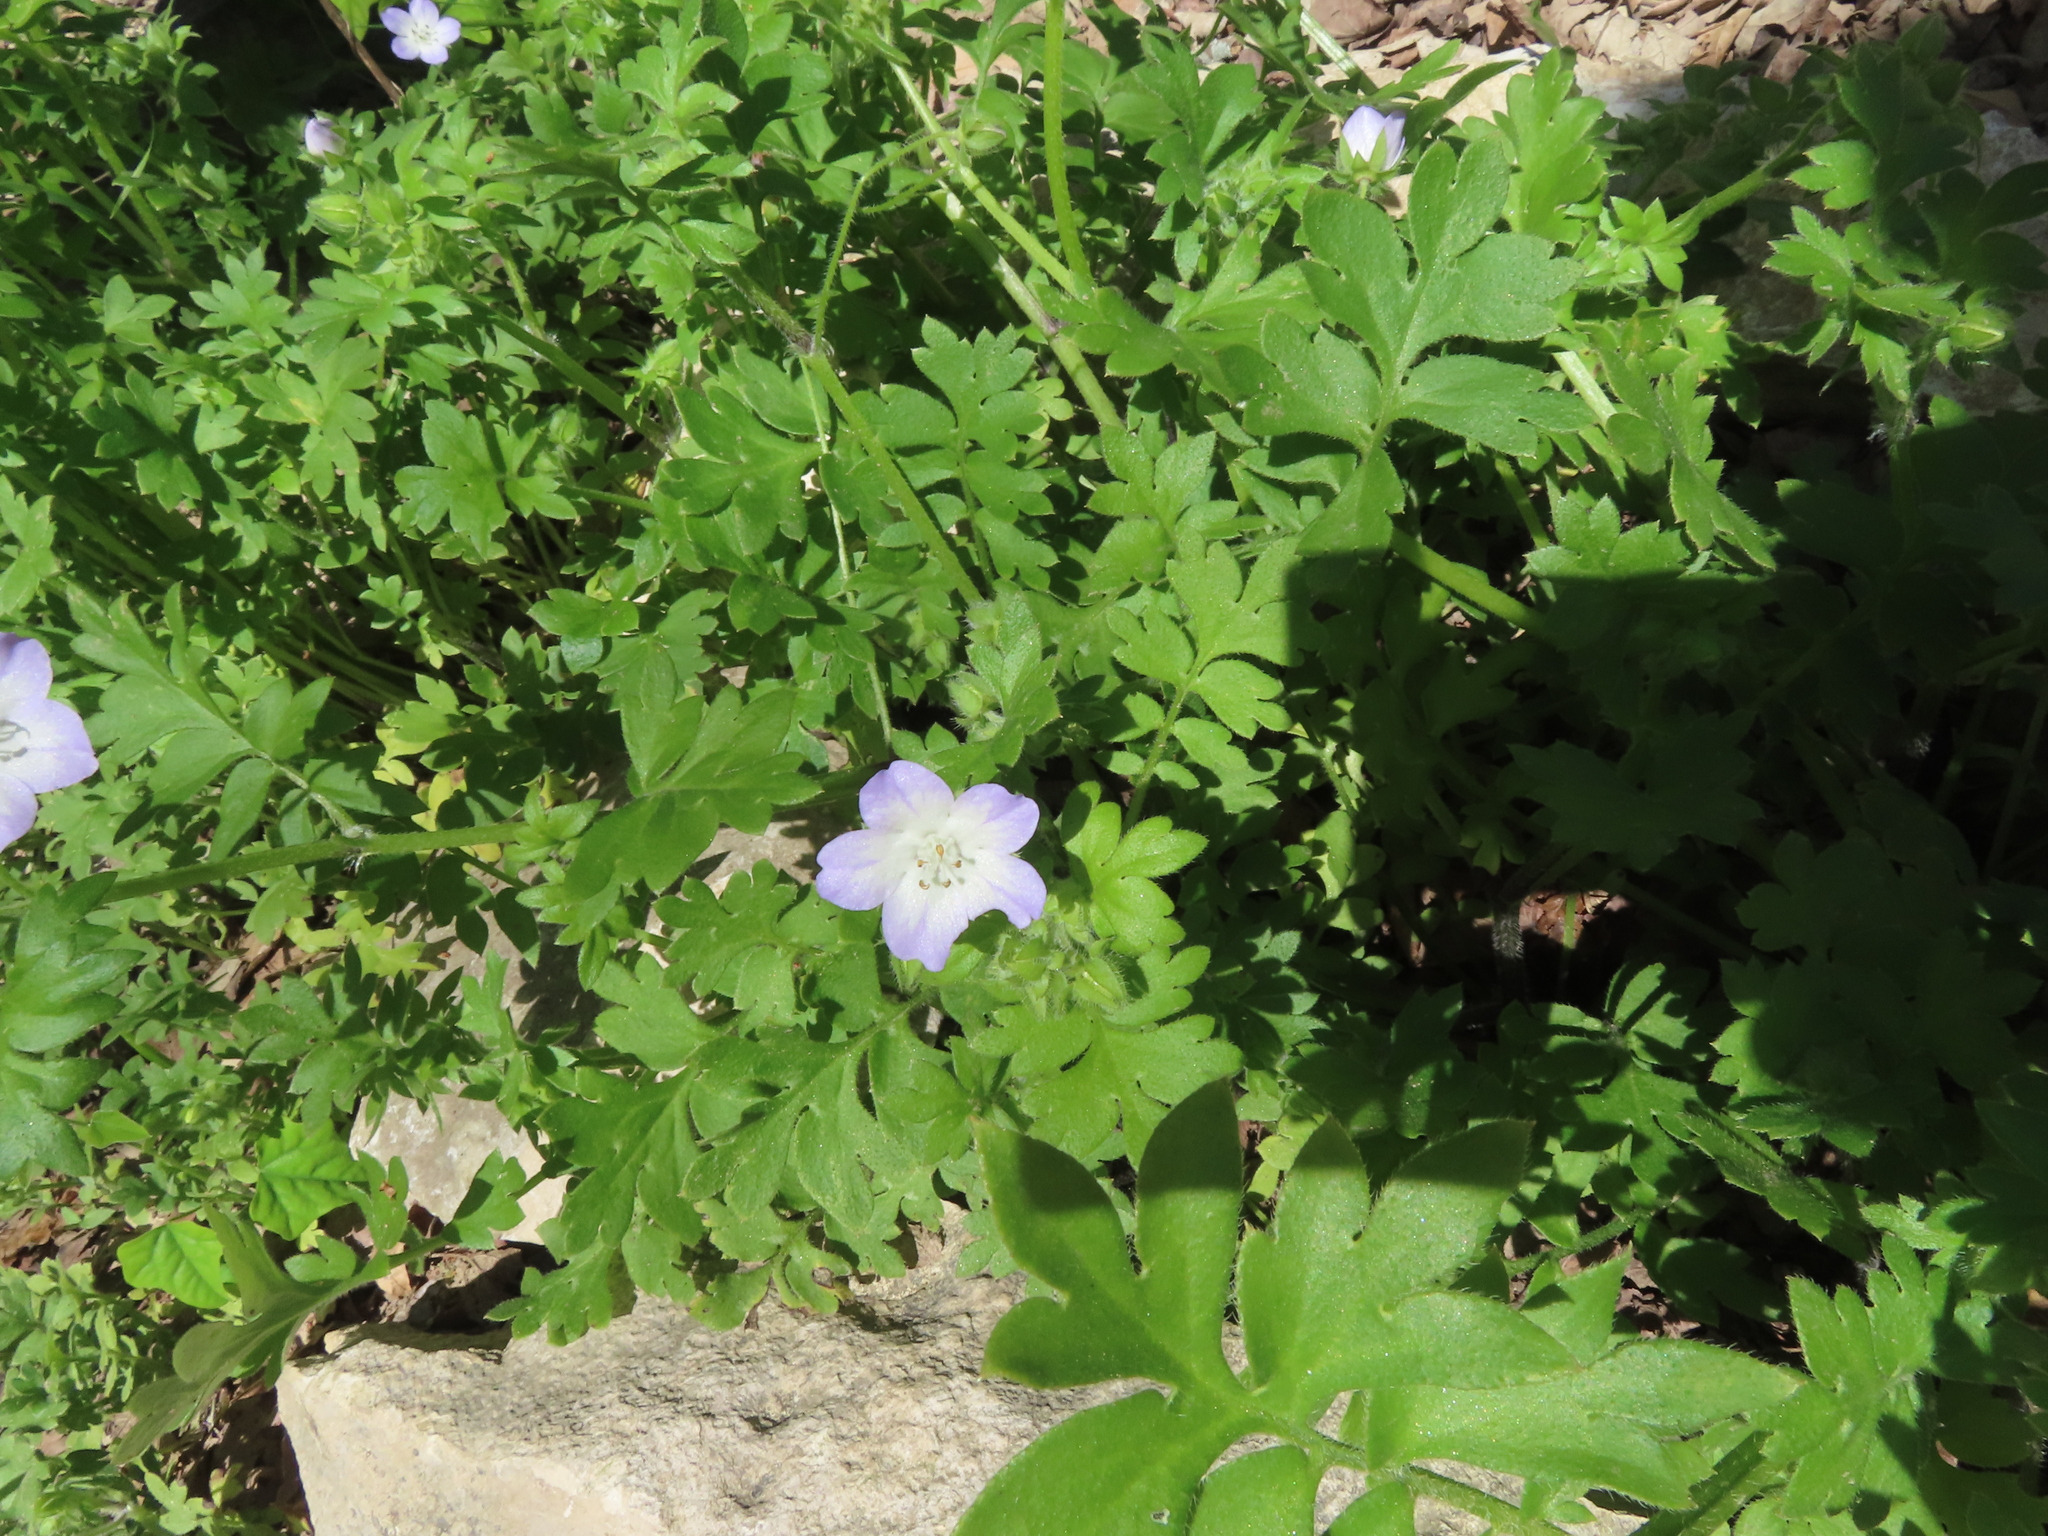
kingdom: Plantae
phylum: Tracheophyta
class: Magnoliopsida
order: Boraginales
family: Hydrophyllaceae
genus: Nemophila
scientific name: Nemophila phacelioides
